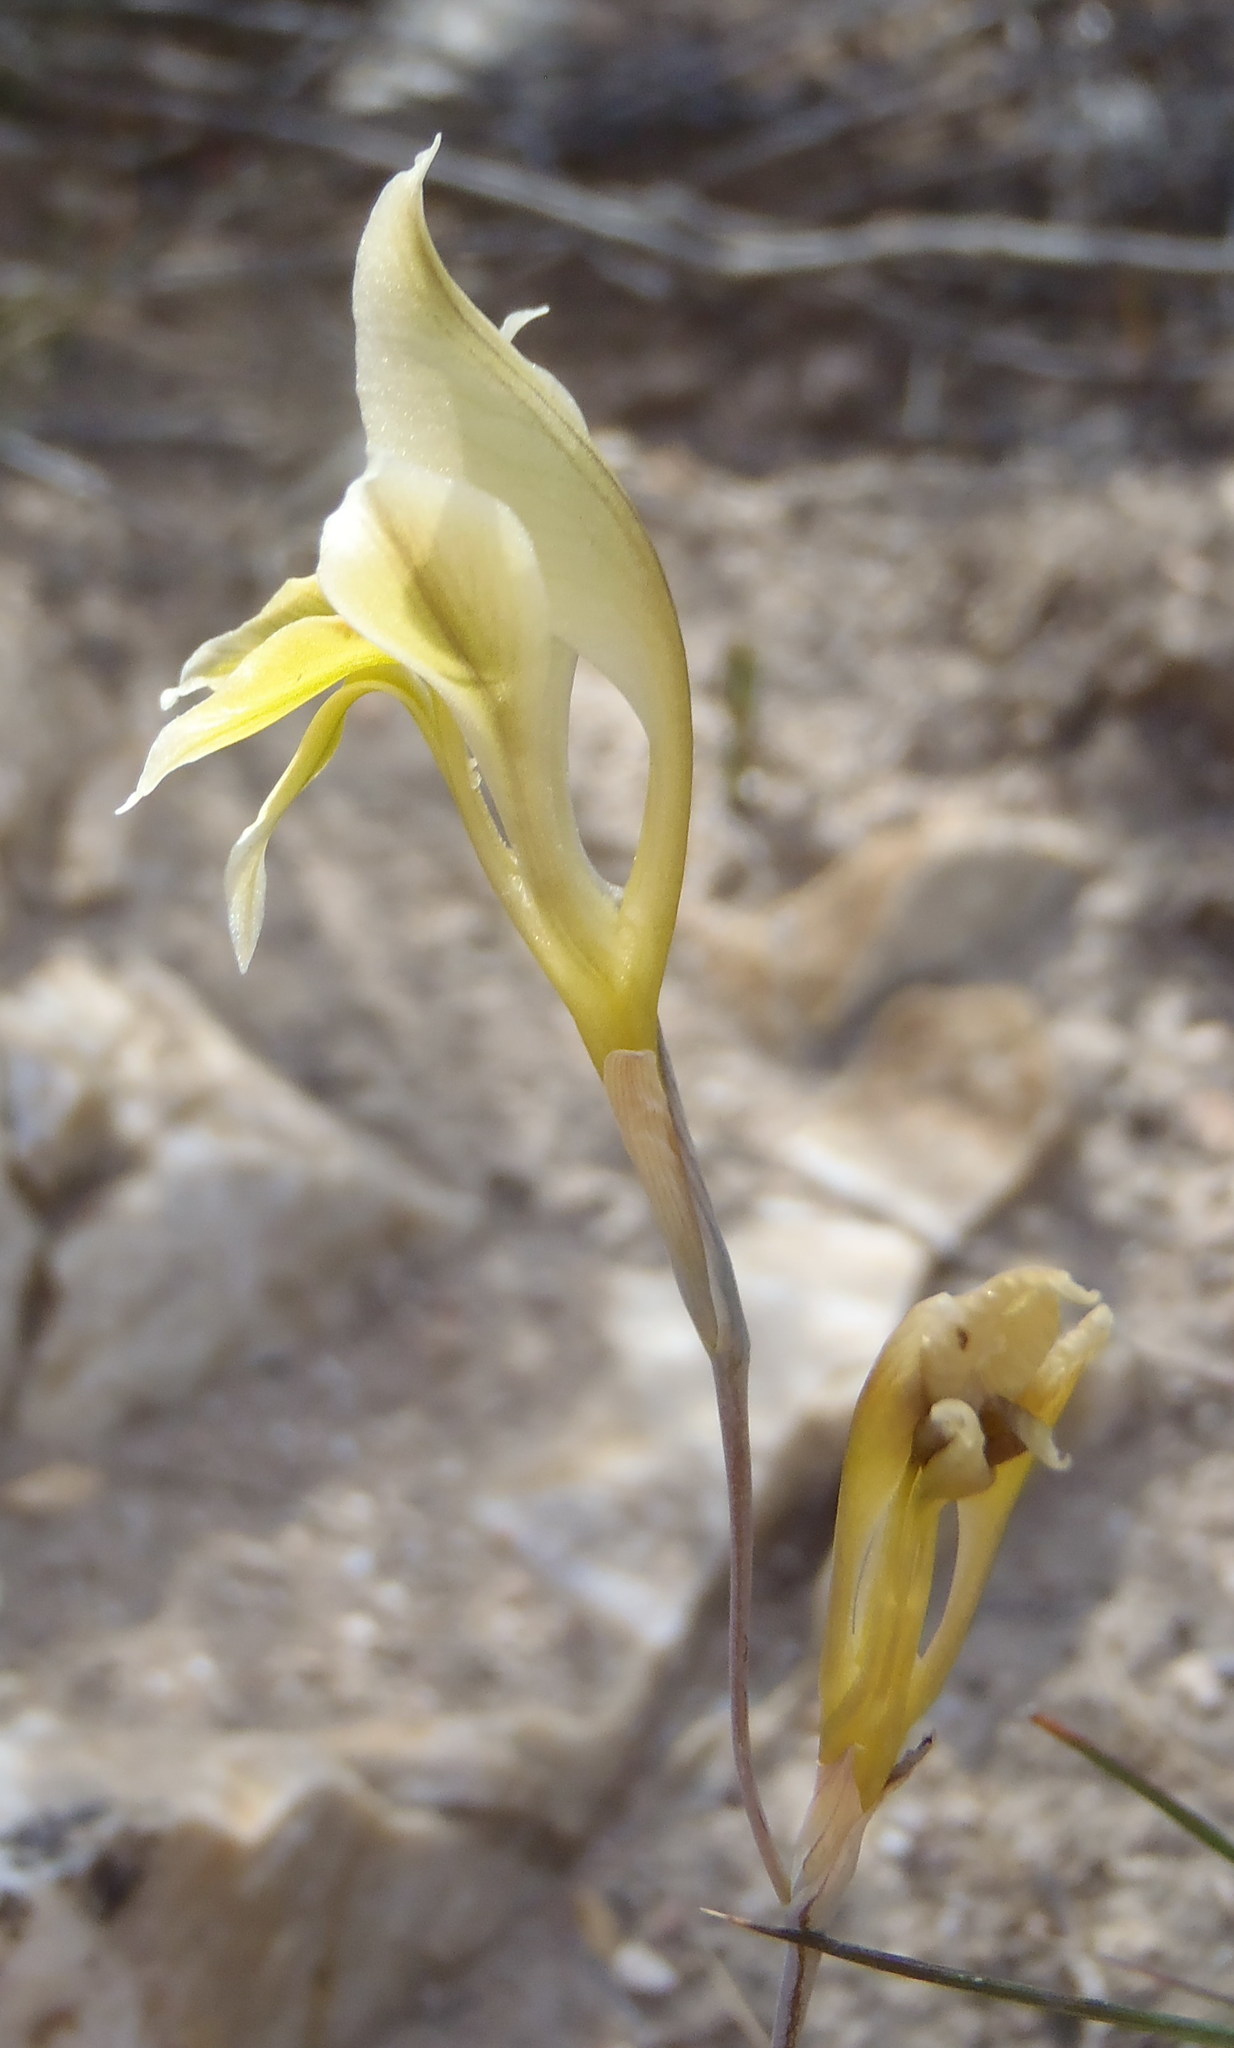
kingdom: Plantae
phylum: Tracheophyta
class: Liliopsida
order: Asparagales
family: Iridaceae
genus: Gladiolus
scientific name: Gladiolus permeabilis
